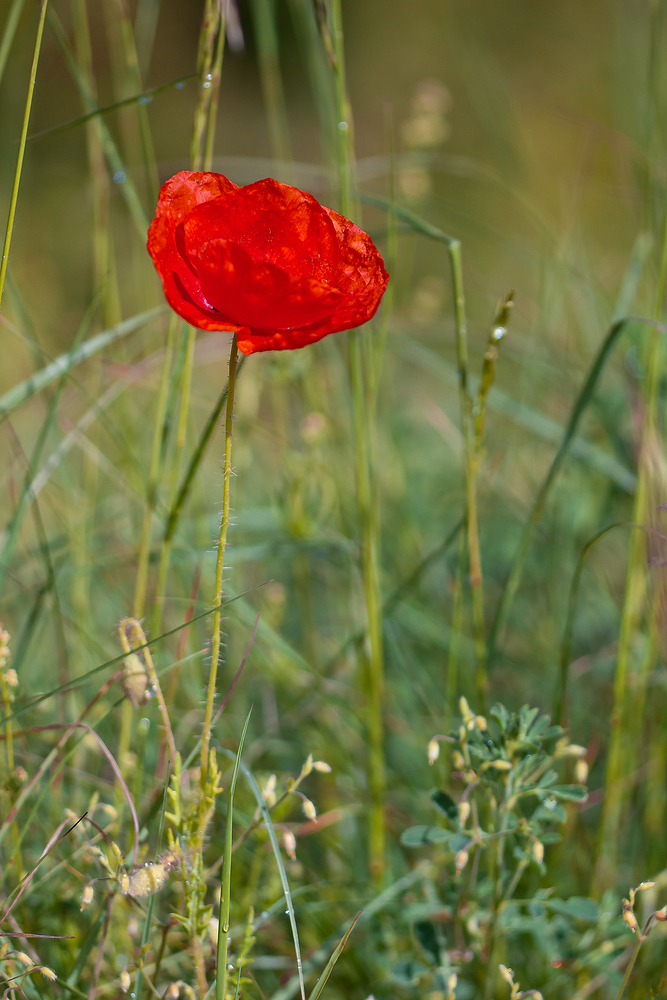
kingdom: Plantae
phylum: Tracheophyta
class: Magnoliopsida
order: Ranunculales
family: Papaveraceae
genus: Papaver
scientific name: Papaver rhoeas
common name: Corn poppy
